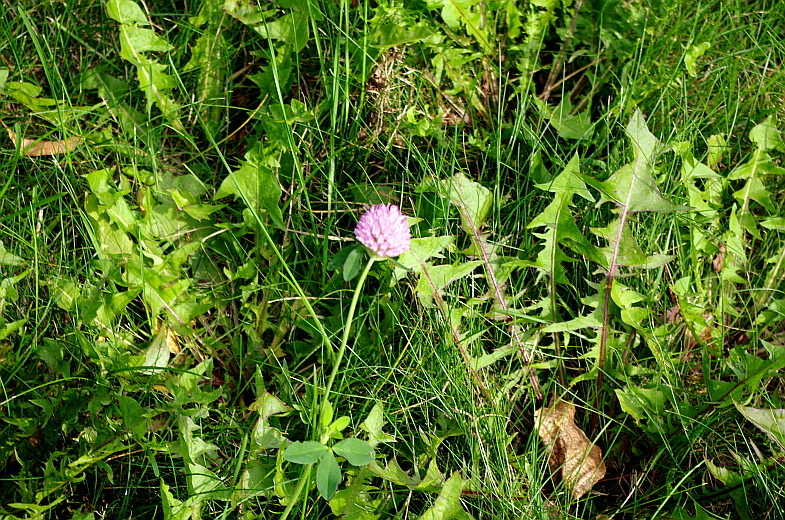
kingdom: Plantae
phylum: Tracheophyta
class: Magnoliopsida
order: Fabales
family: Fabaceae
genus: Trifolium
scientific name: Trifolium pratense
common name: Red clover
